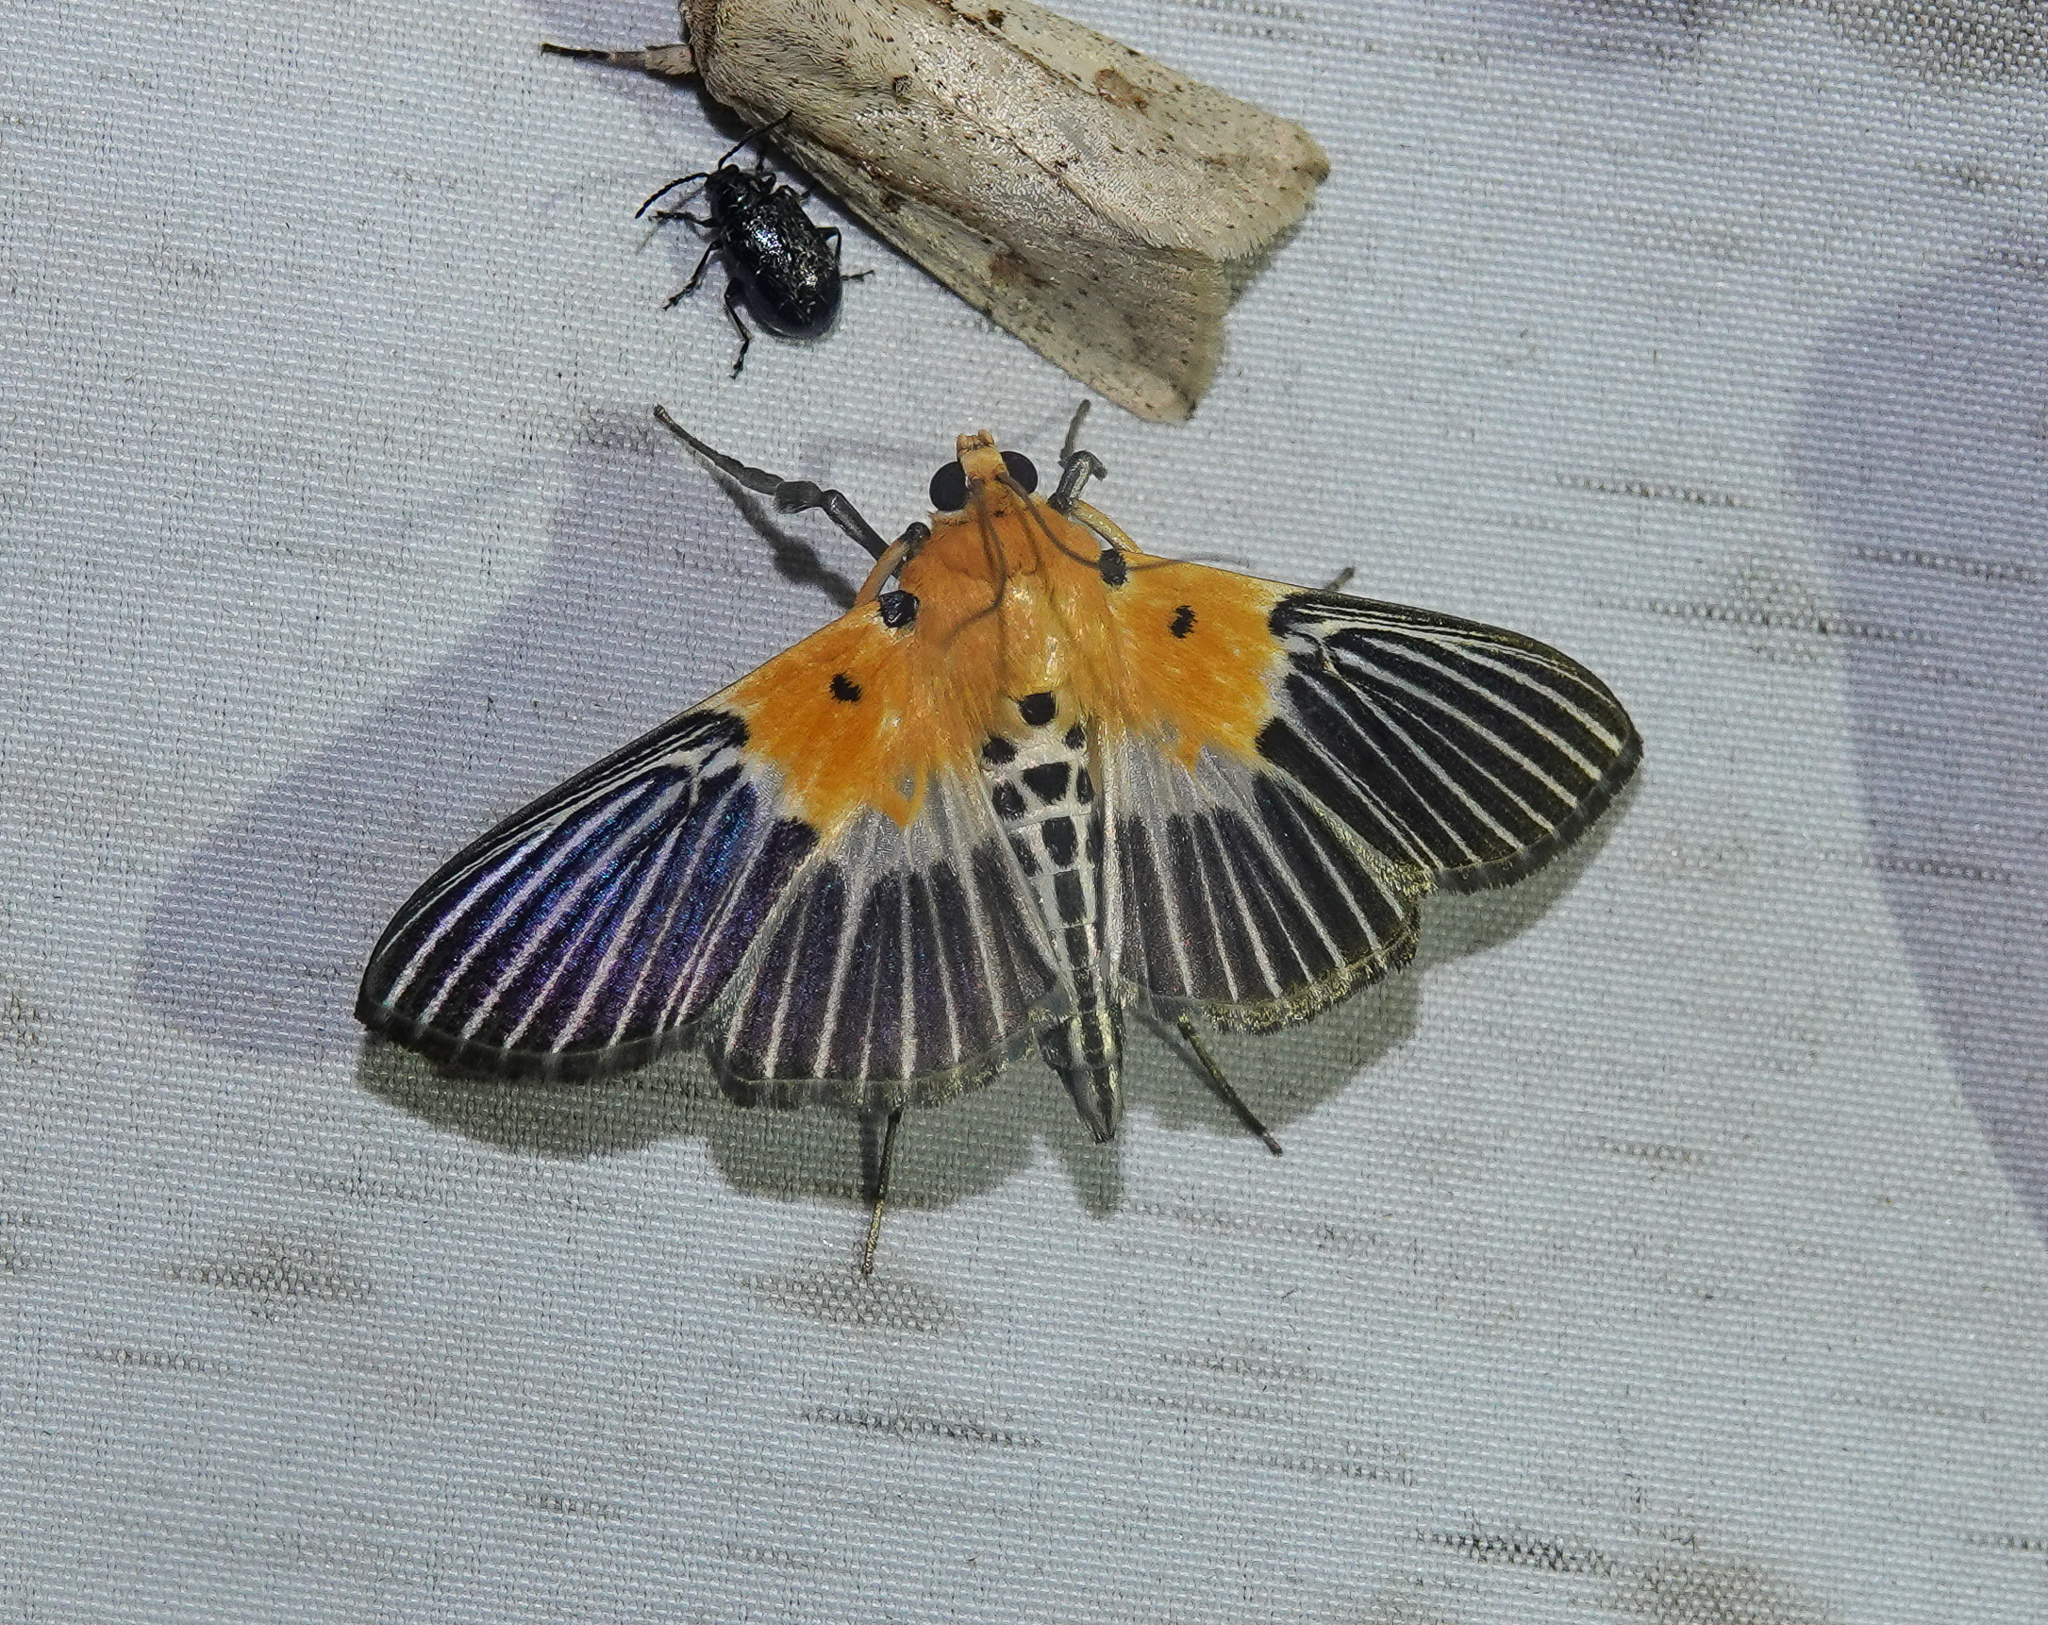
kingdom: Animalia
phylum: Arthropoda
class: Insecta
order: Lepidoptera
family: Crambidae
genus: Nevrina
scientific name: Nevrina procopia
